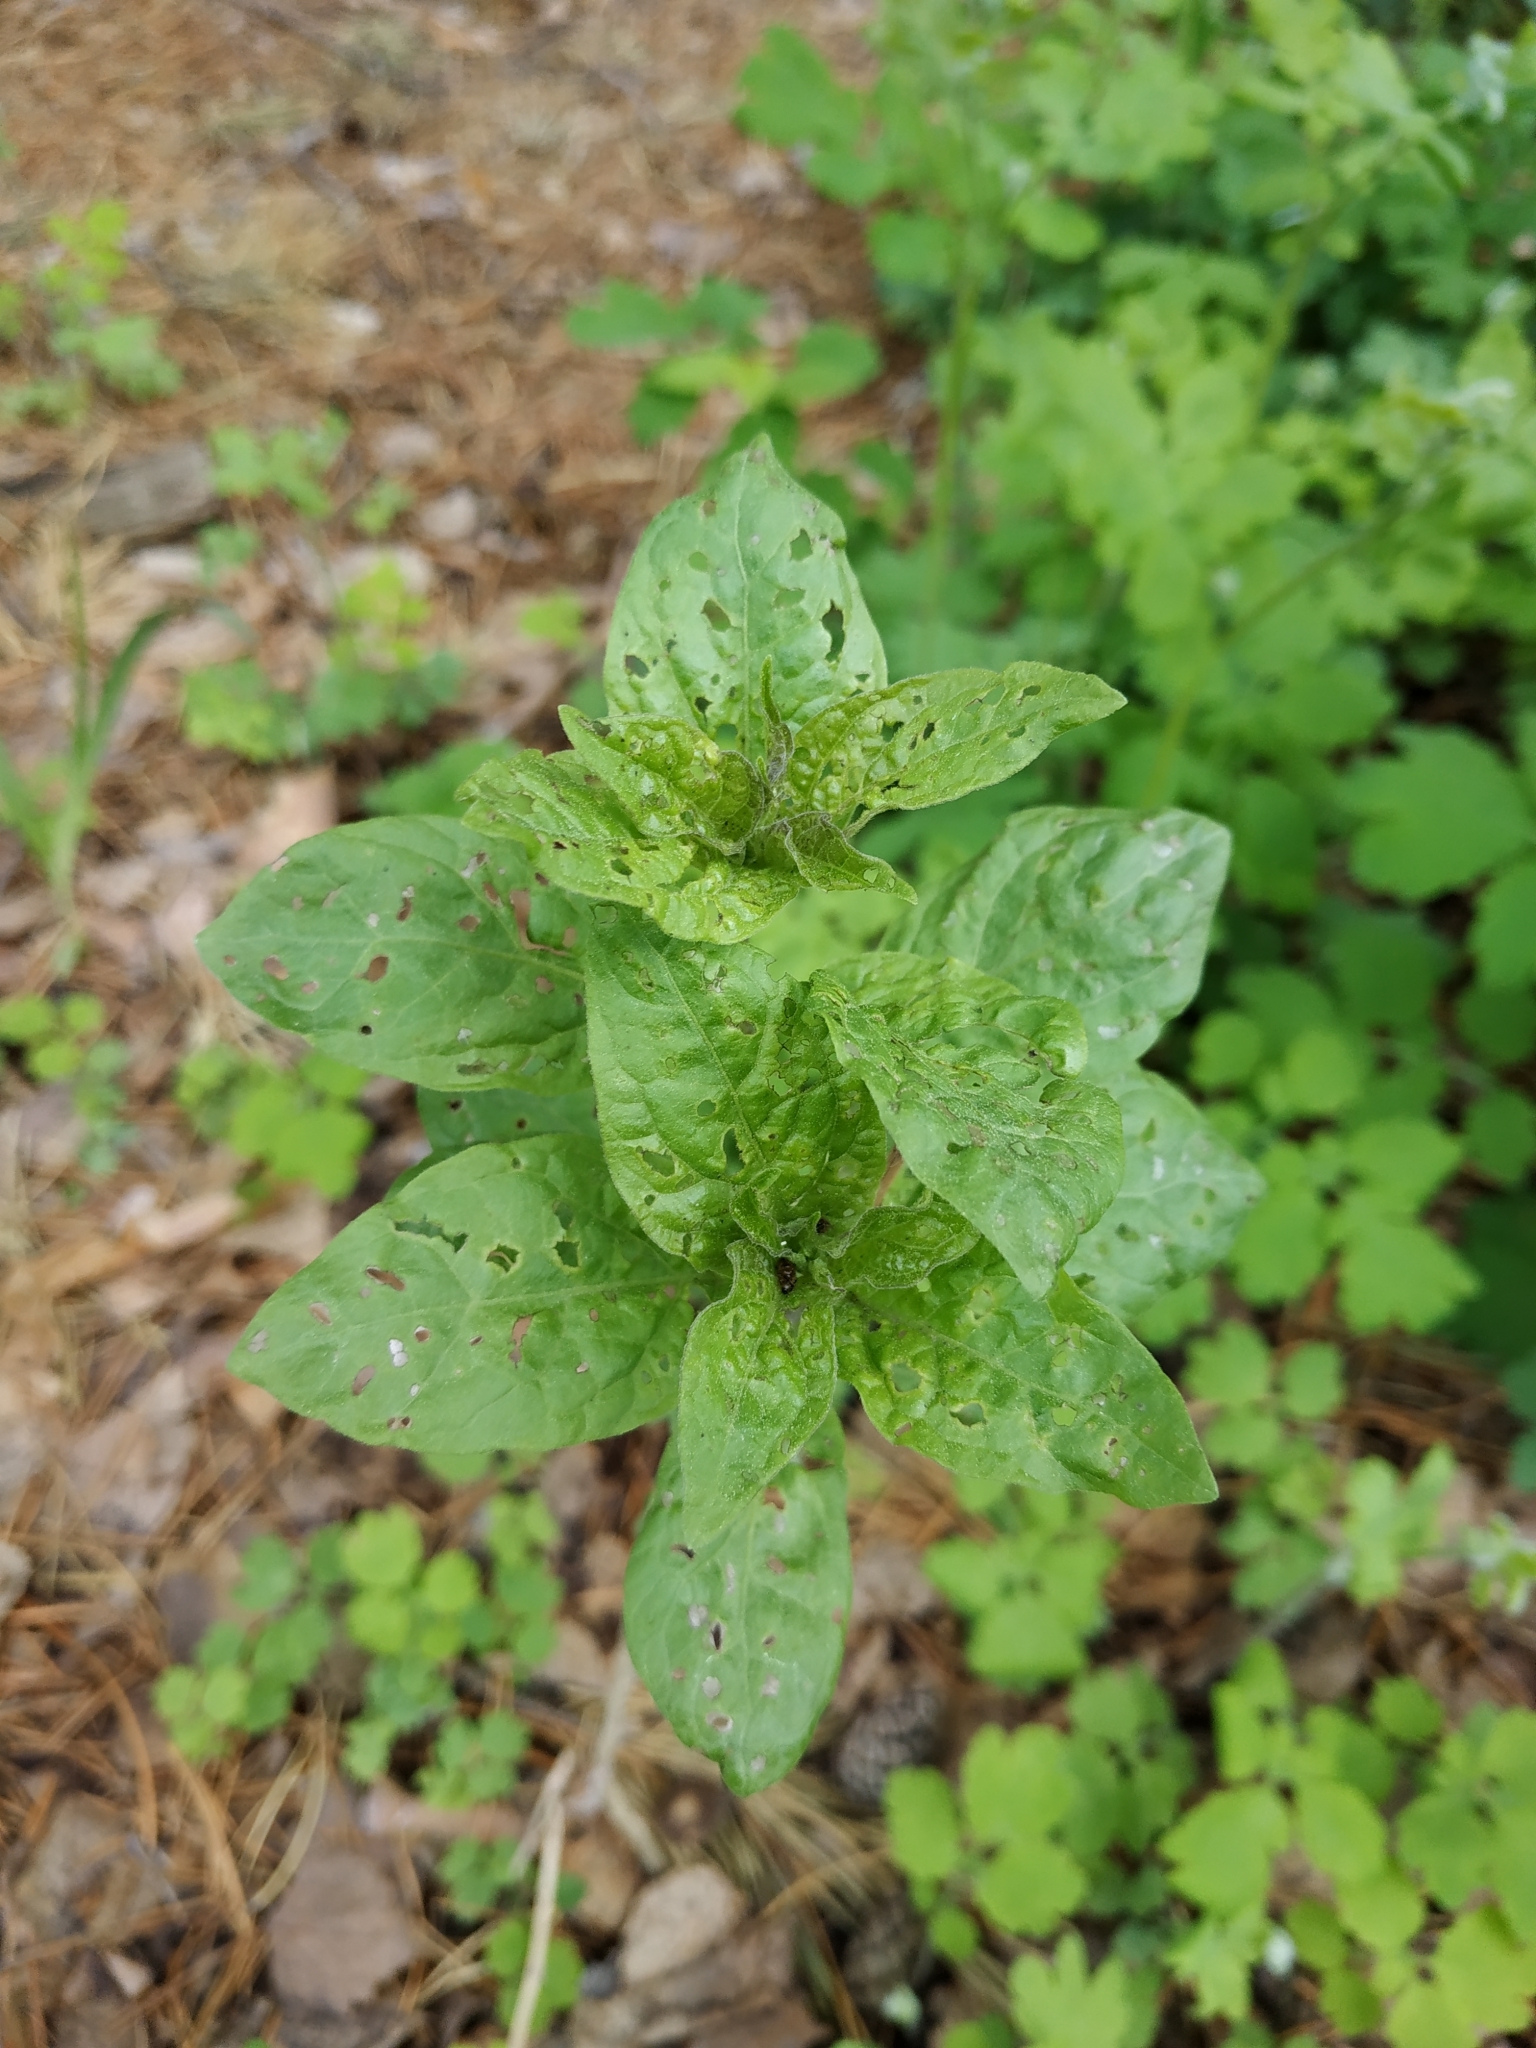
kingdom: Plantae
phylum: Tracheophyta
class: Magnoliopsida
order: Solanales
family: Solanaceae
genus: Solanum
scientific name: Solanum dulcamara
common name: Climbing nightshade
